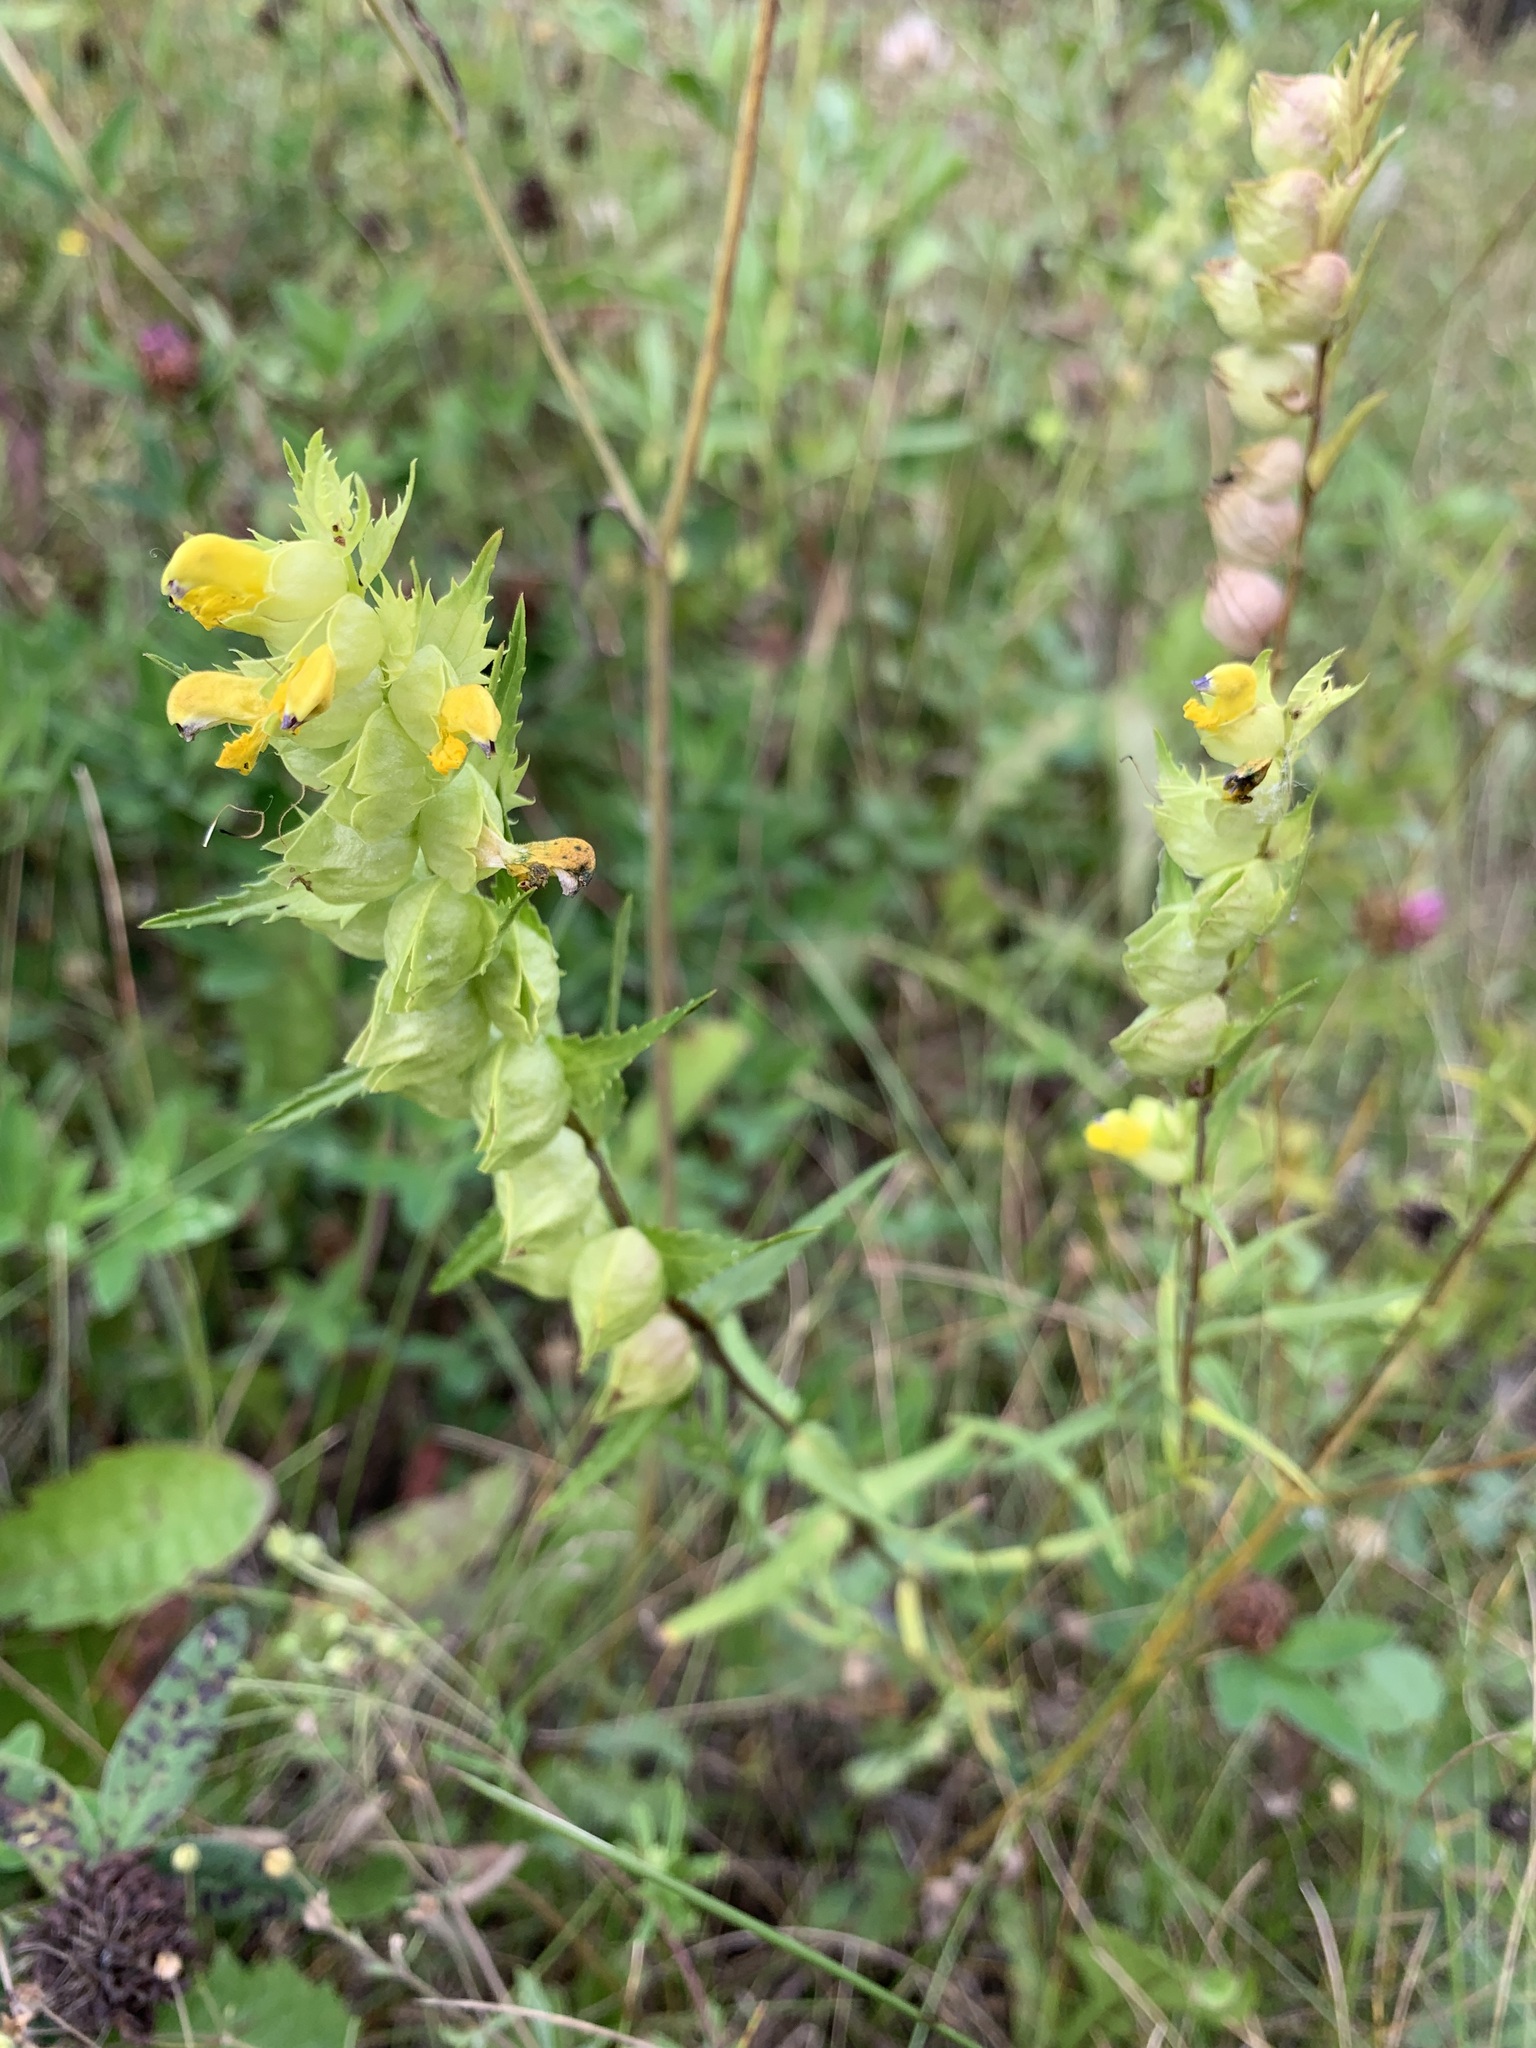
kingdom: Plantae
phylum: Tracheophyta
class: Magnoliopsida
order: Lamiales
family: Orobanchaceae
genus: Rhinanthus
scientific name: Rhinanthus serotinus
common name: Late-flowering yellow rattle
